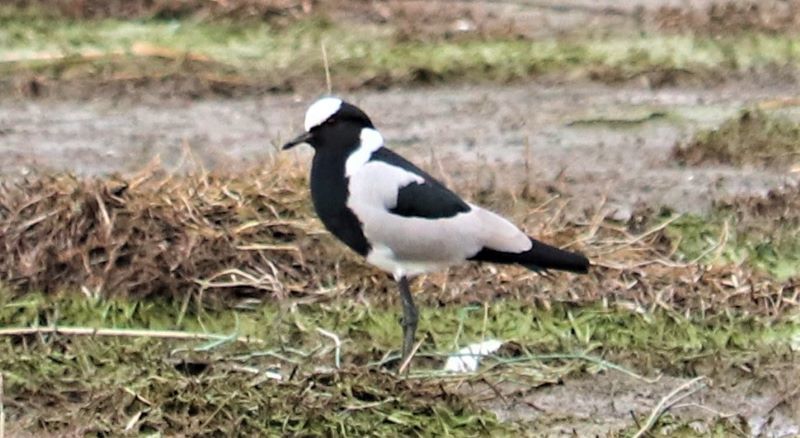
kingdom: Animalia
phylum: Chordata
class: Aves
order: Charadriiformes
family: Charadriidae
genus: Vanellus
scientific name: Vanellus armatus
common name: Blacksmith lapwing
